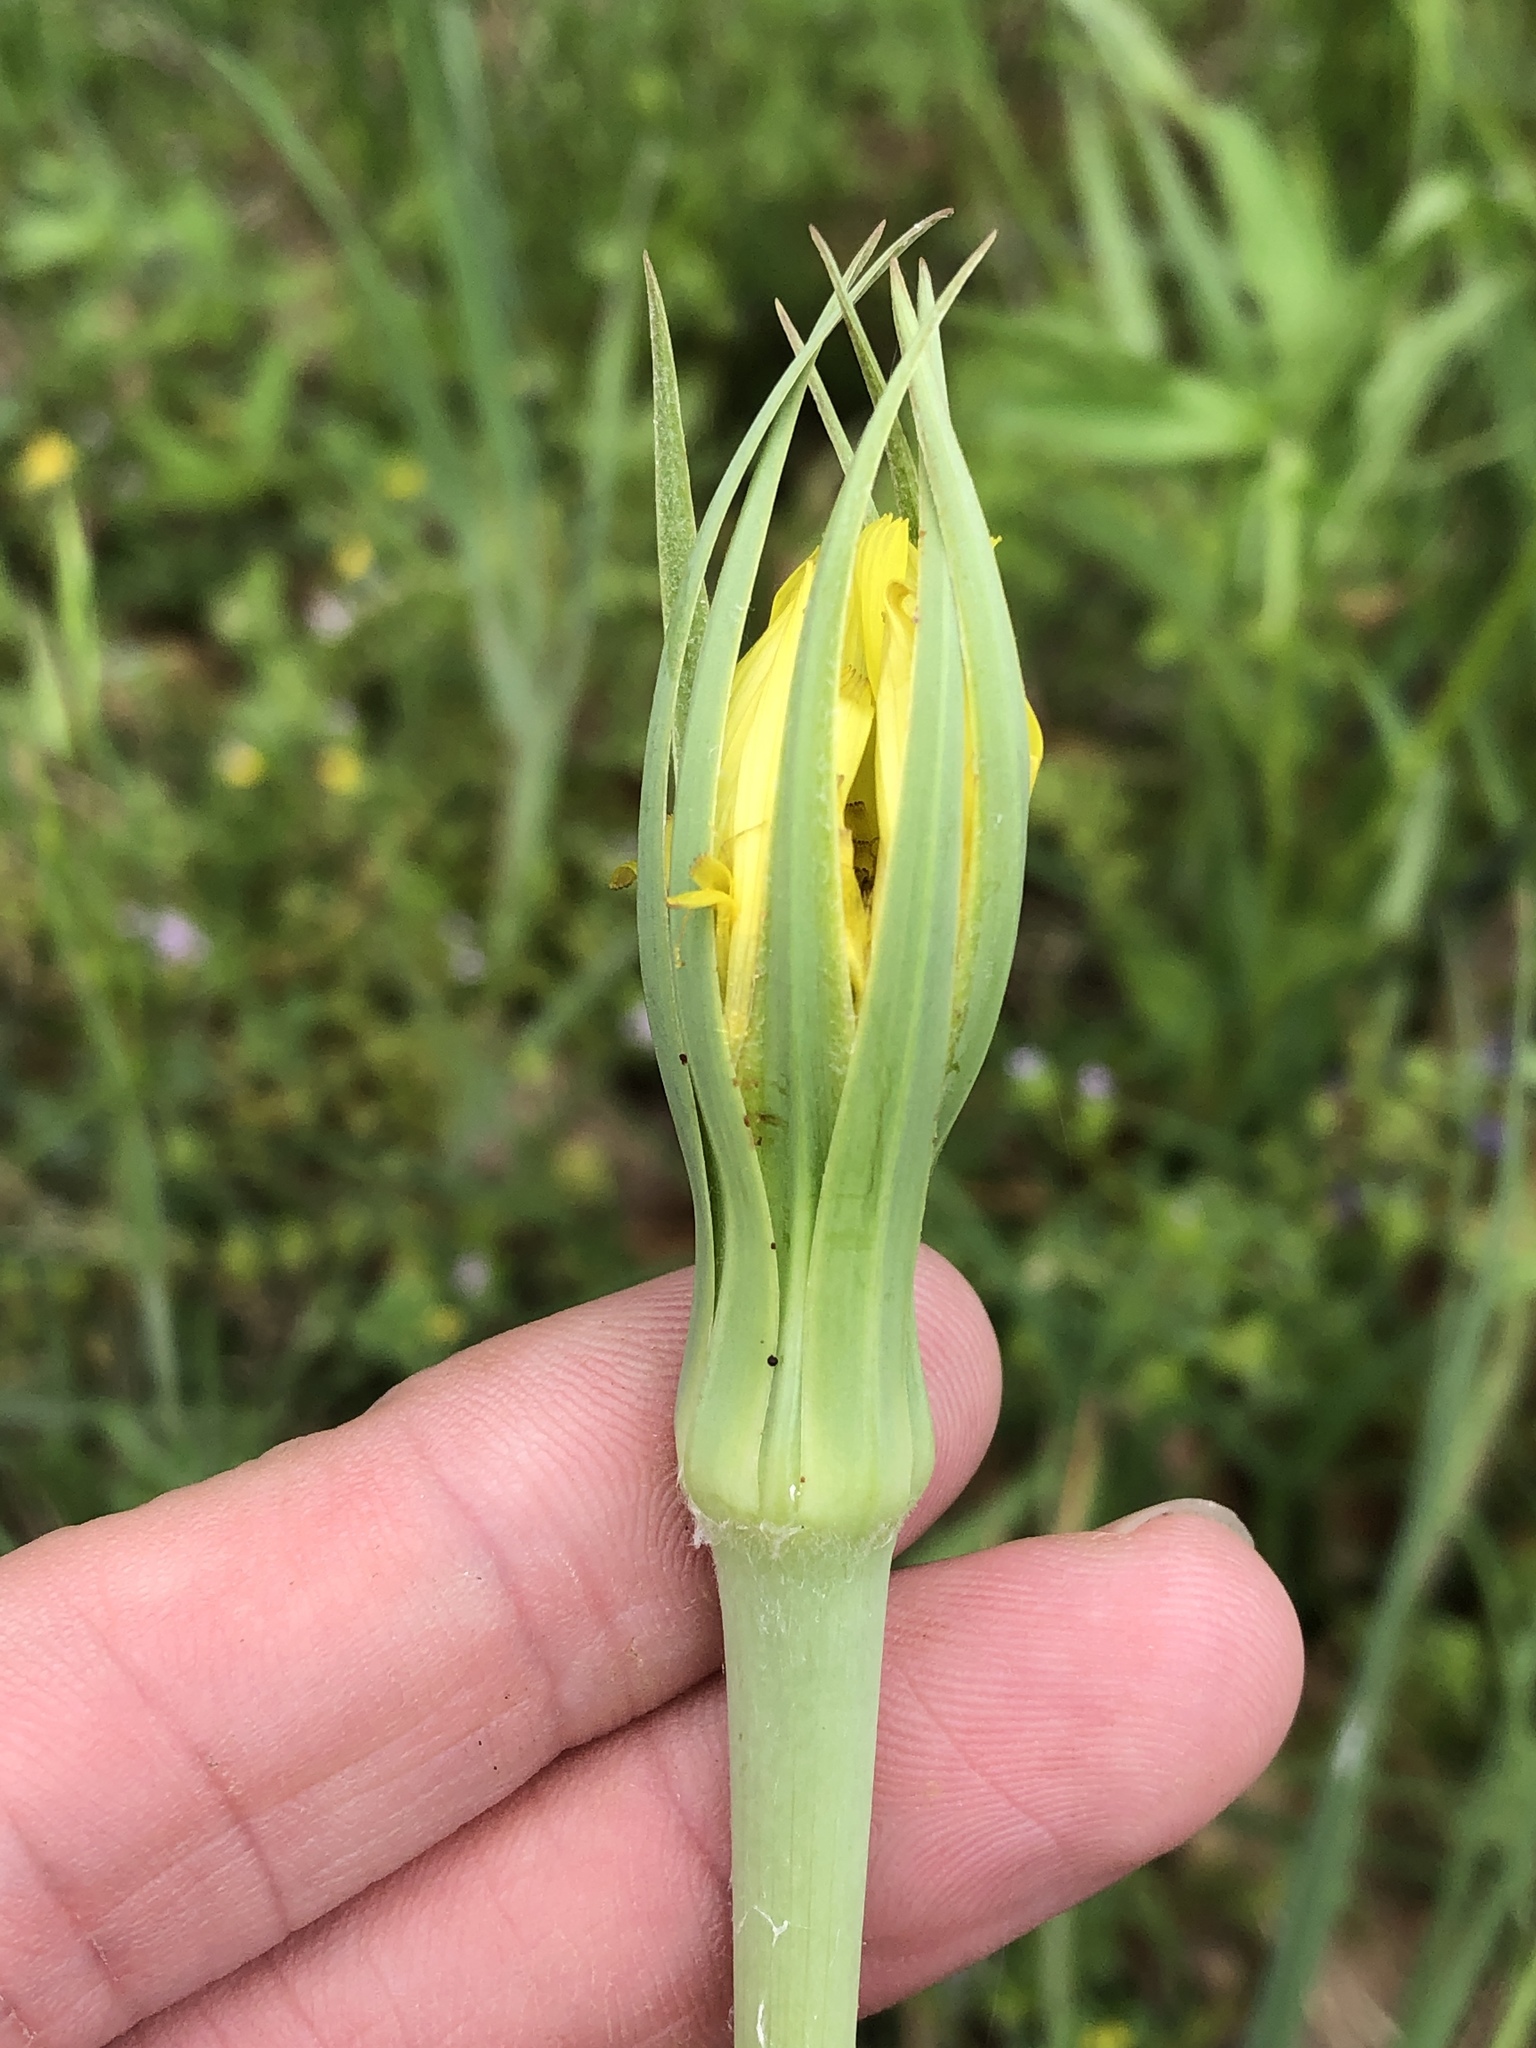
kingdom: Plantae
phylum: Tracheophyta
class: Magnoliopsida
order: Asterales
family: Asteraceae
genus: Tragopogon
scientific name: Tragopogon dubius
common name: Yellow salsify
